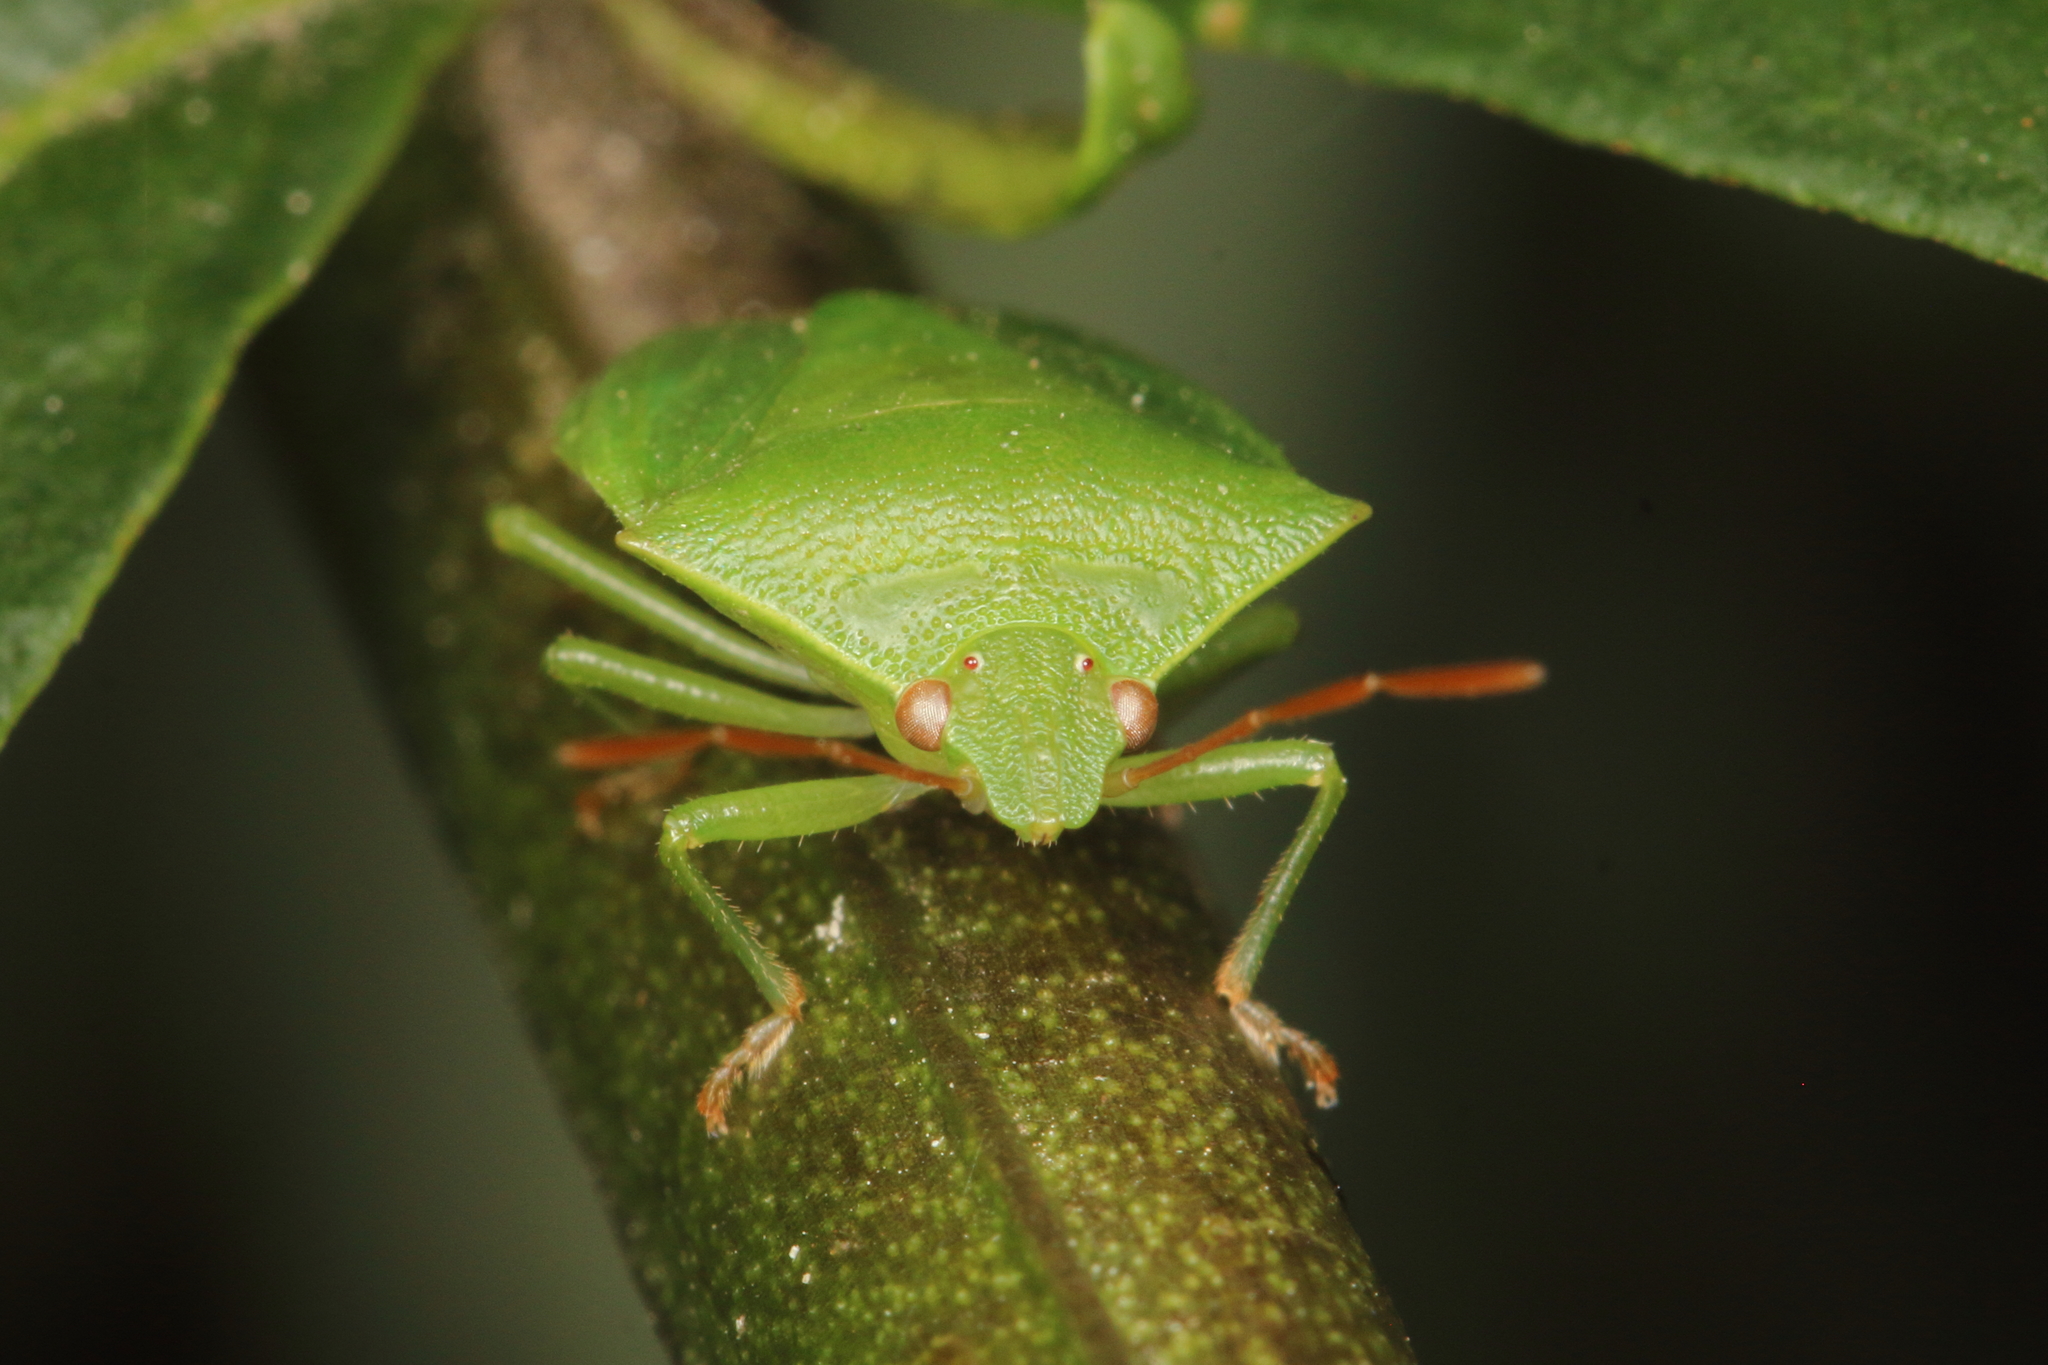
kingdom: Animalia
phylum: Arthropoda
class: Insecta
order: Hemiptera
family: Pentatomidae
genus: Cuspicona
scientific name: Cuspicona simplex
